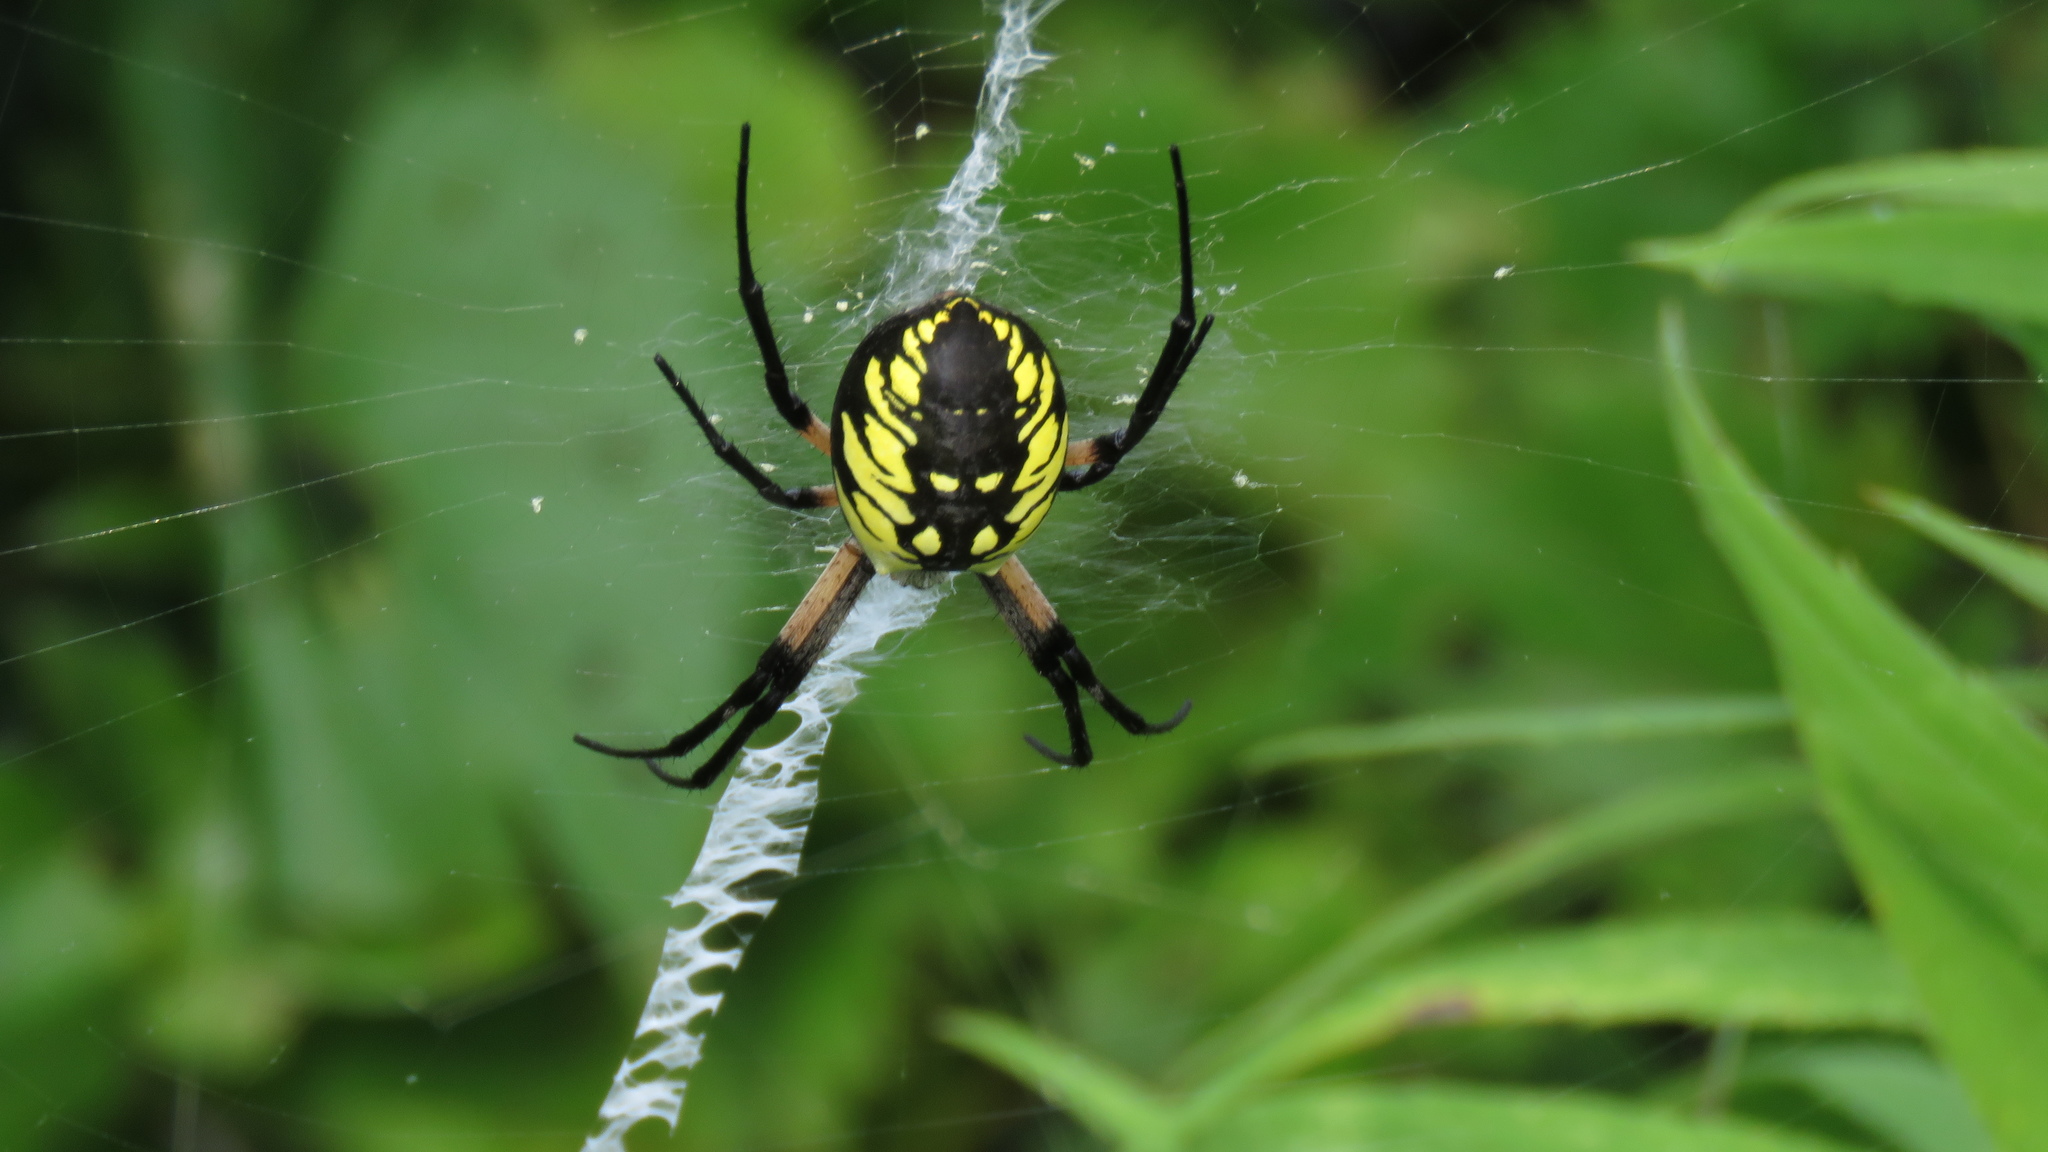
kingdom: Animalia
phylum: Arthropoda
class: Arachnida
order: Araneae
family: Araneidae
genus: Argiope
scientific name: Argiope aurantia
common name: Orb weavers
